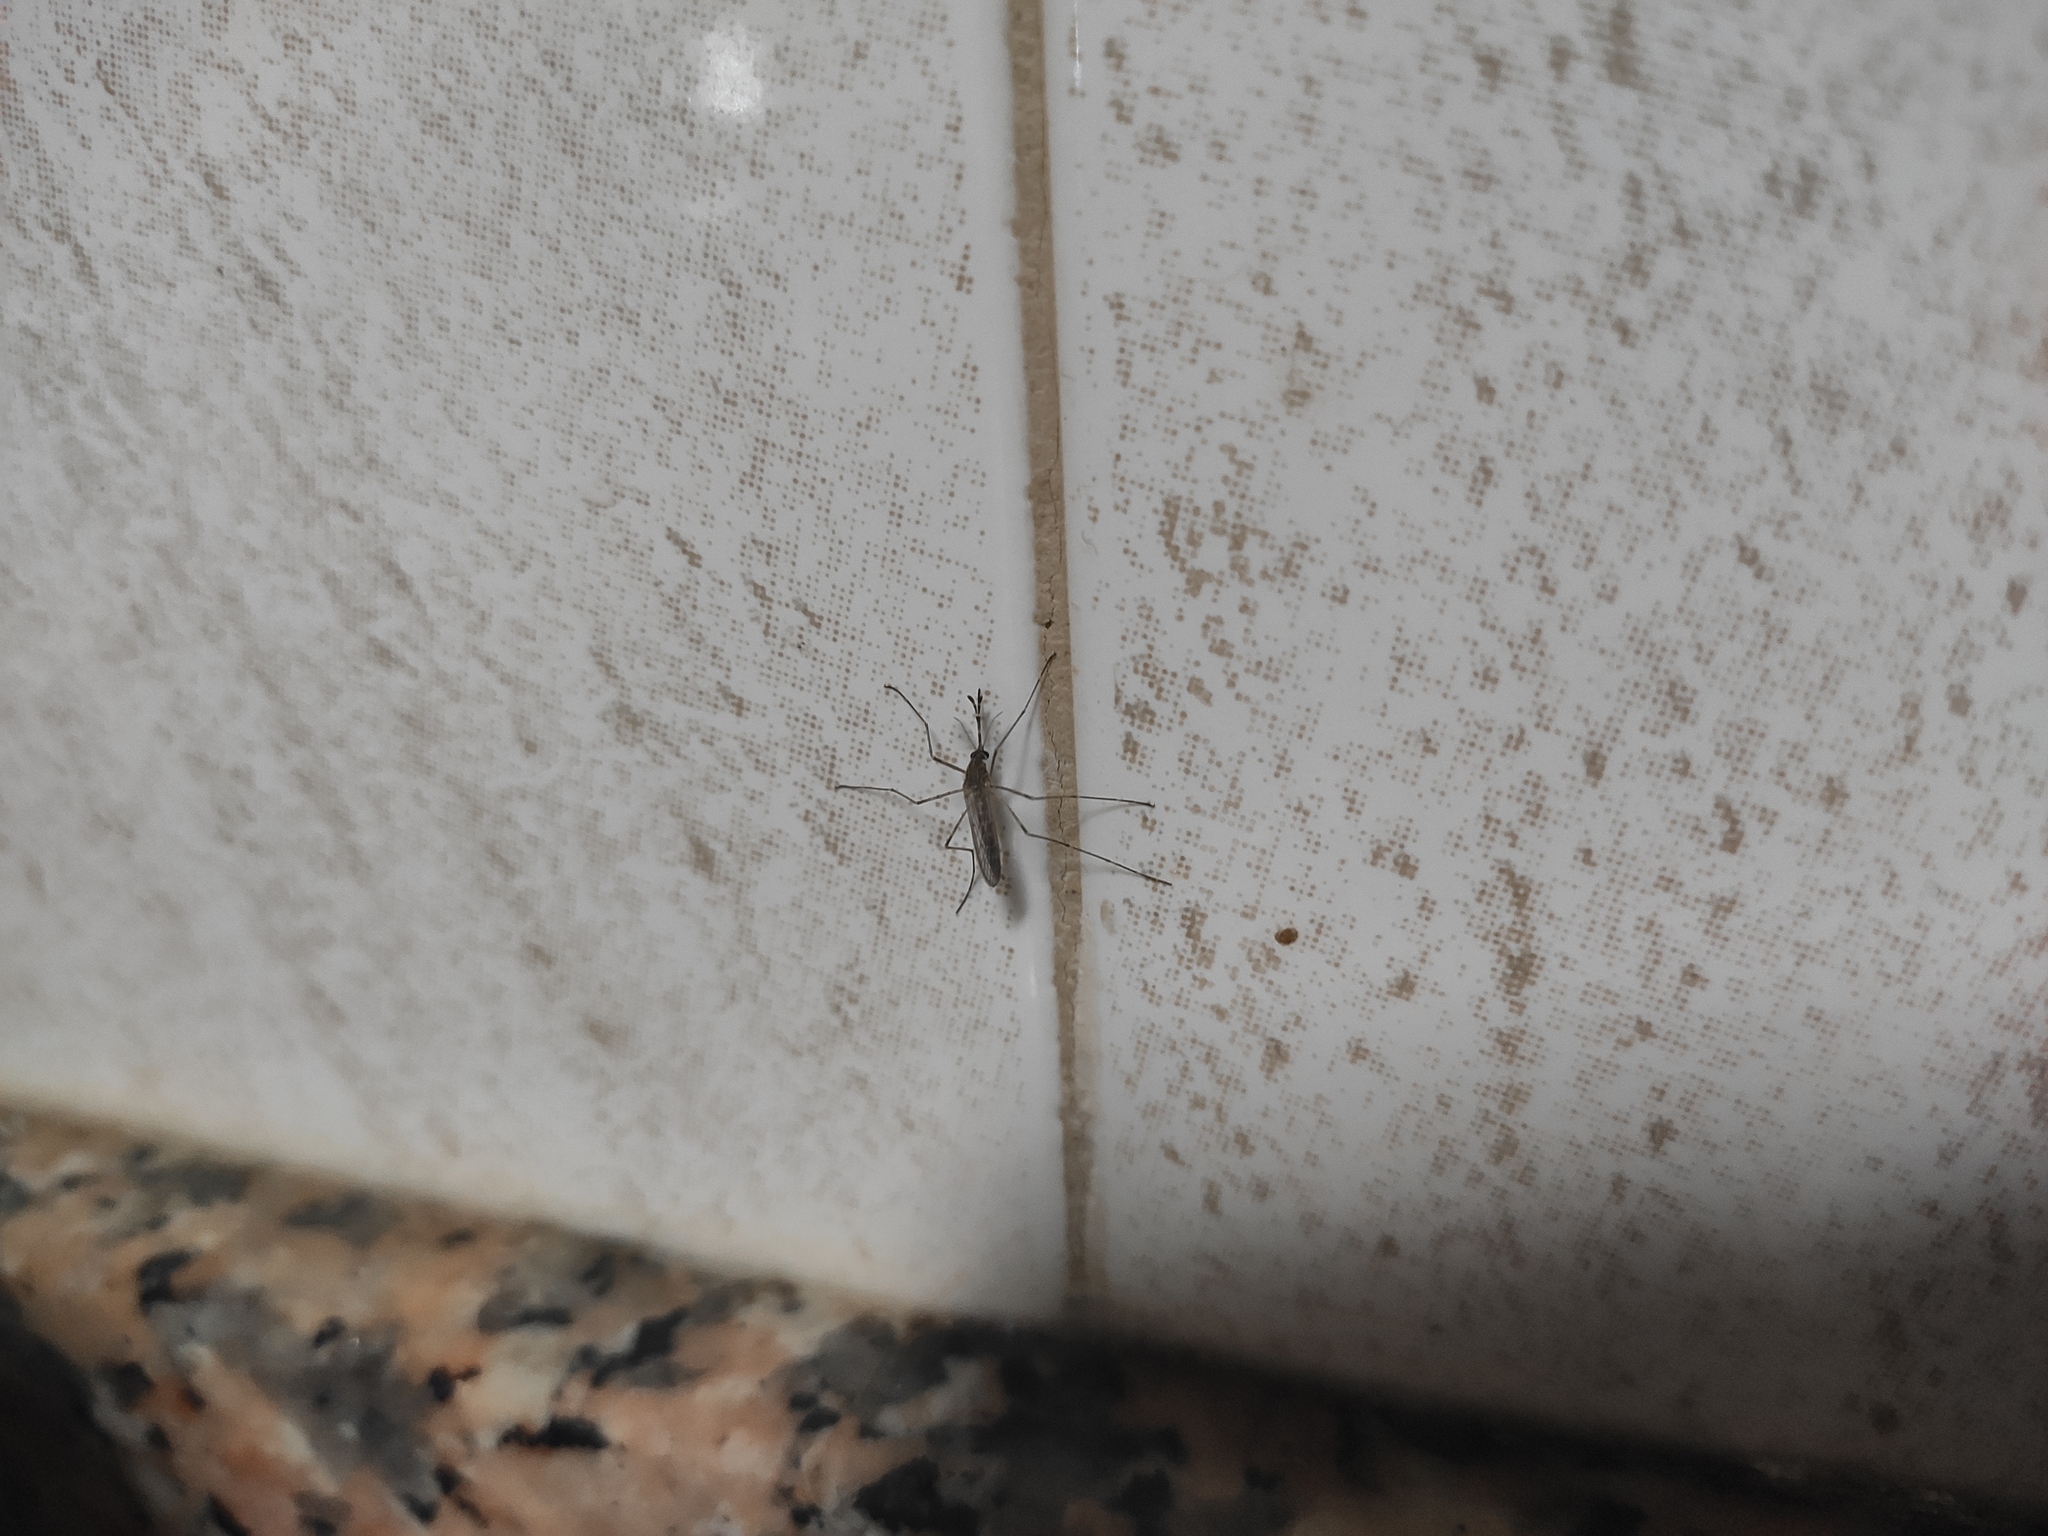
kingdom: Animalia
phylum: Arthropoda
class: Insecta
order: Diptera
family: Culicidae
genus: Culiseta
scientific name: Culiseta longiareolata
